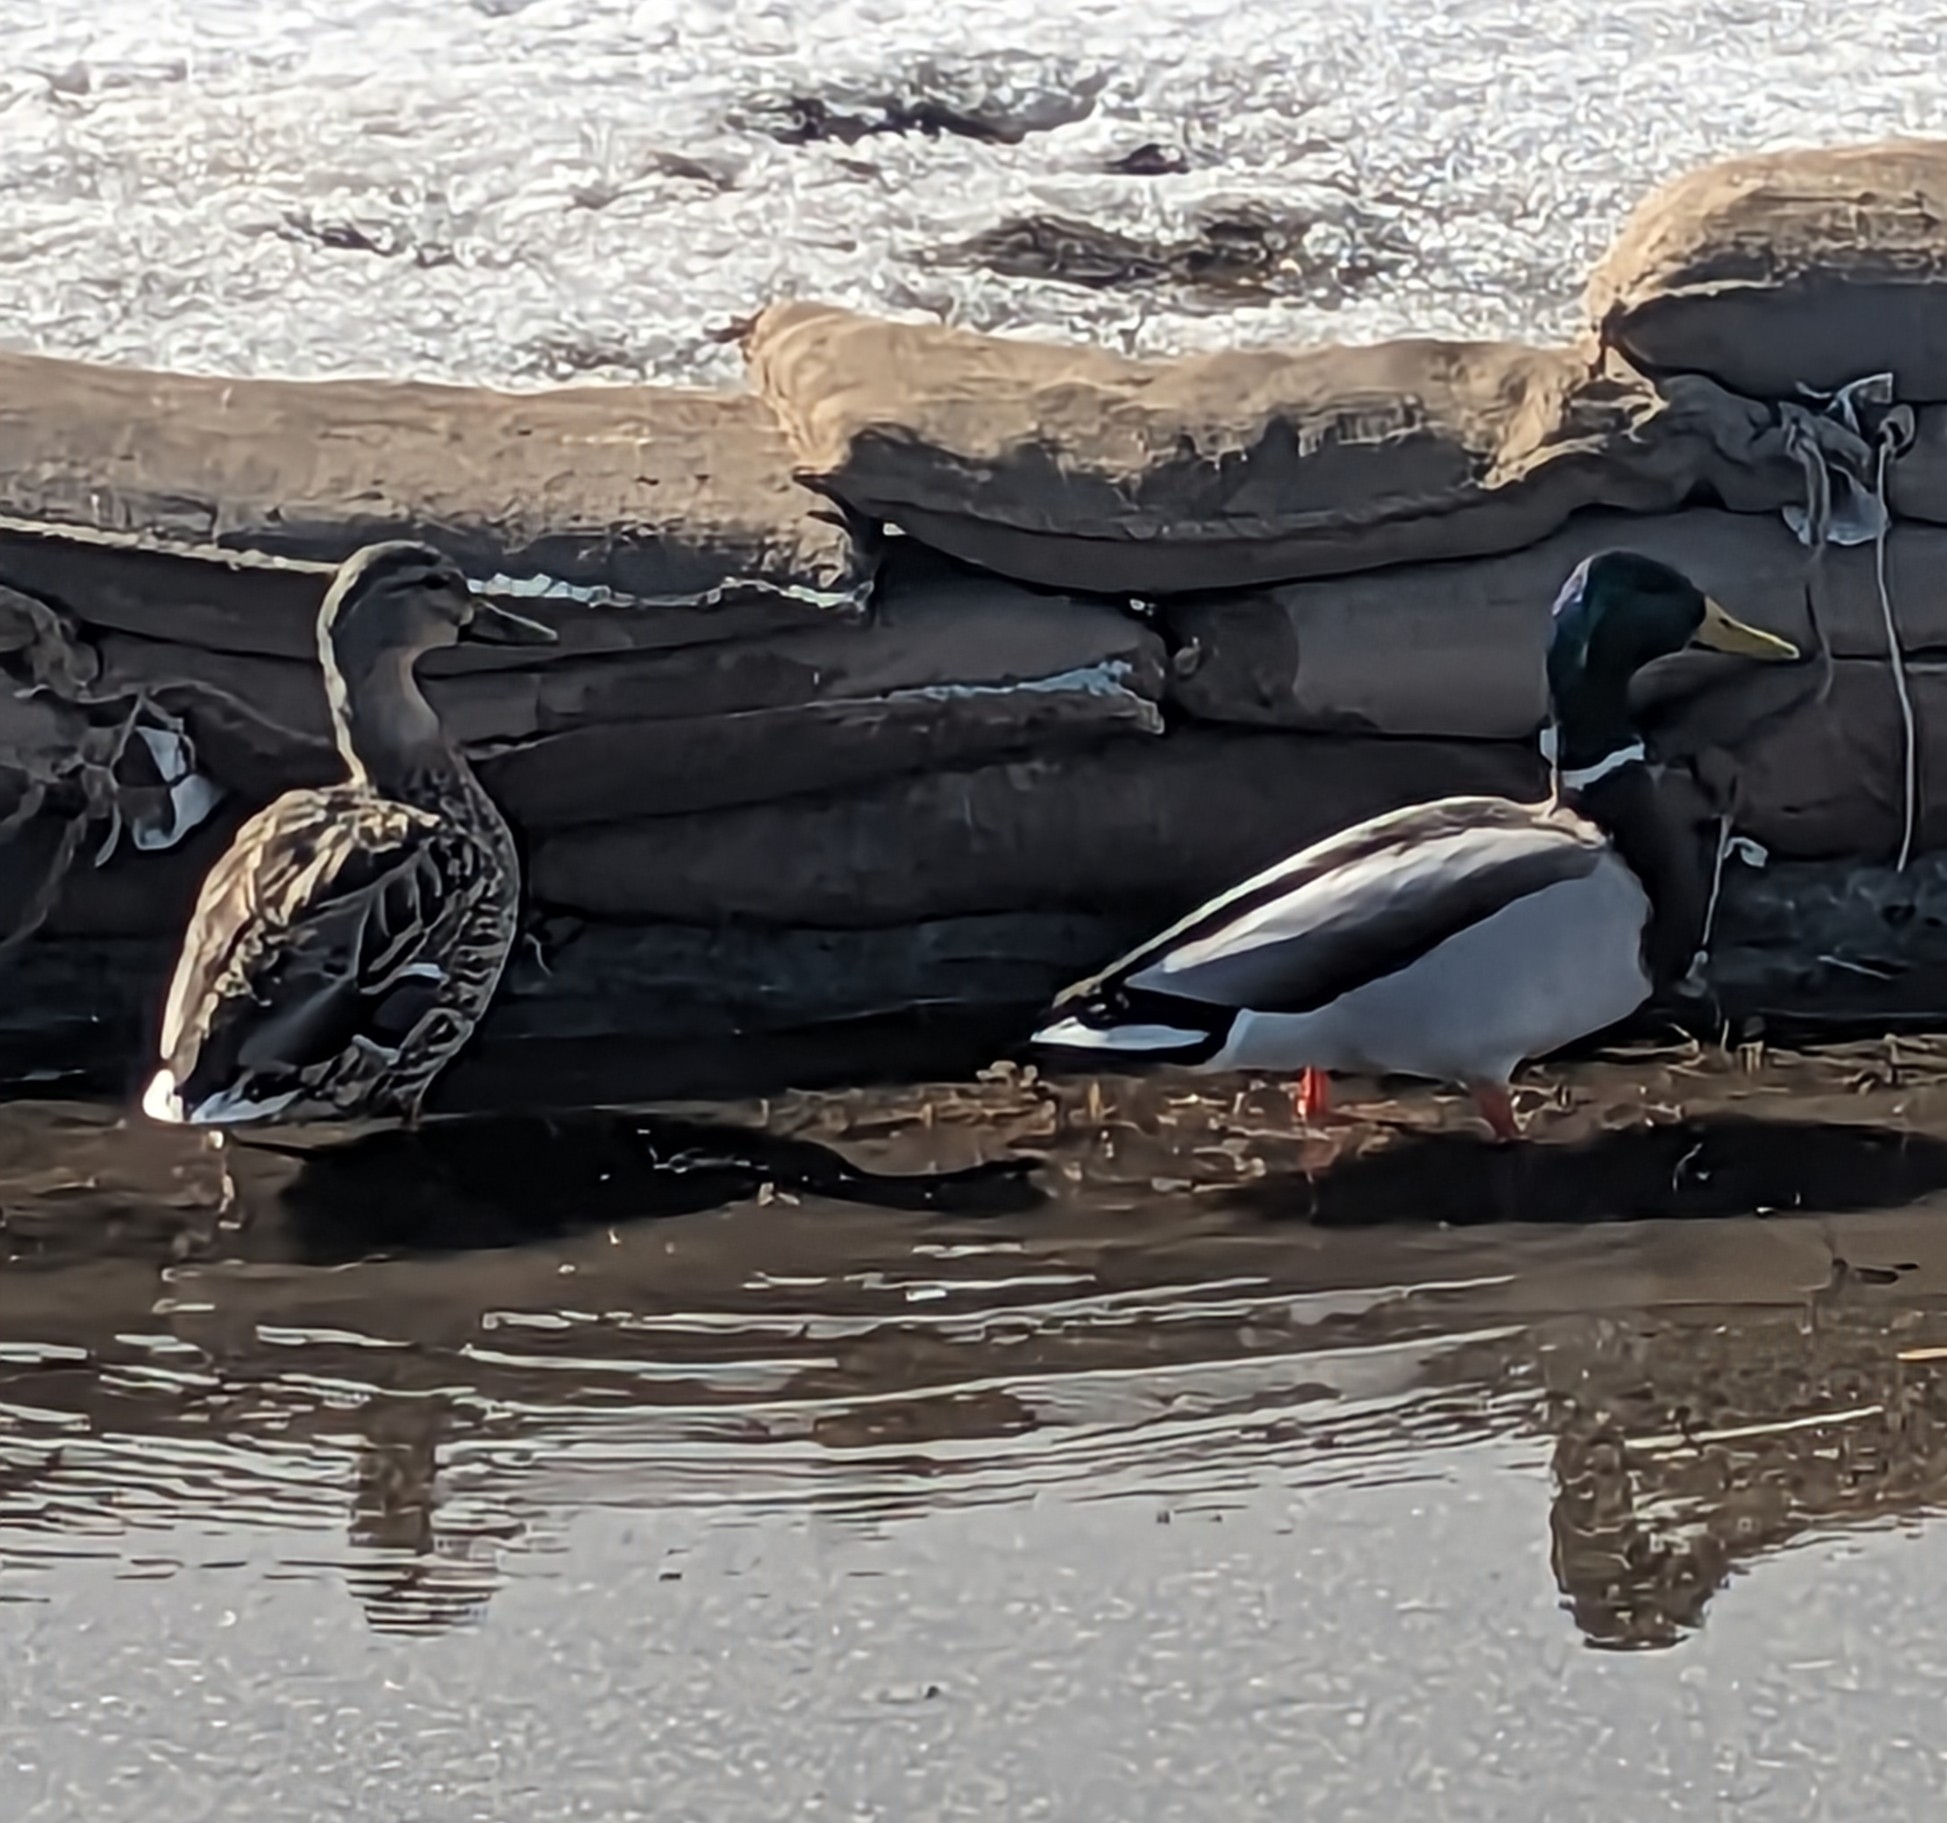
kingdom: Animalia
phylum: Chordata
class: Aves
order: Anseriformes
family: Anatidae
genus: Anas
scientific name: Anas platyrhynchos
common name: Mallard
